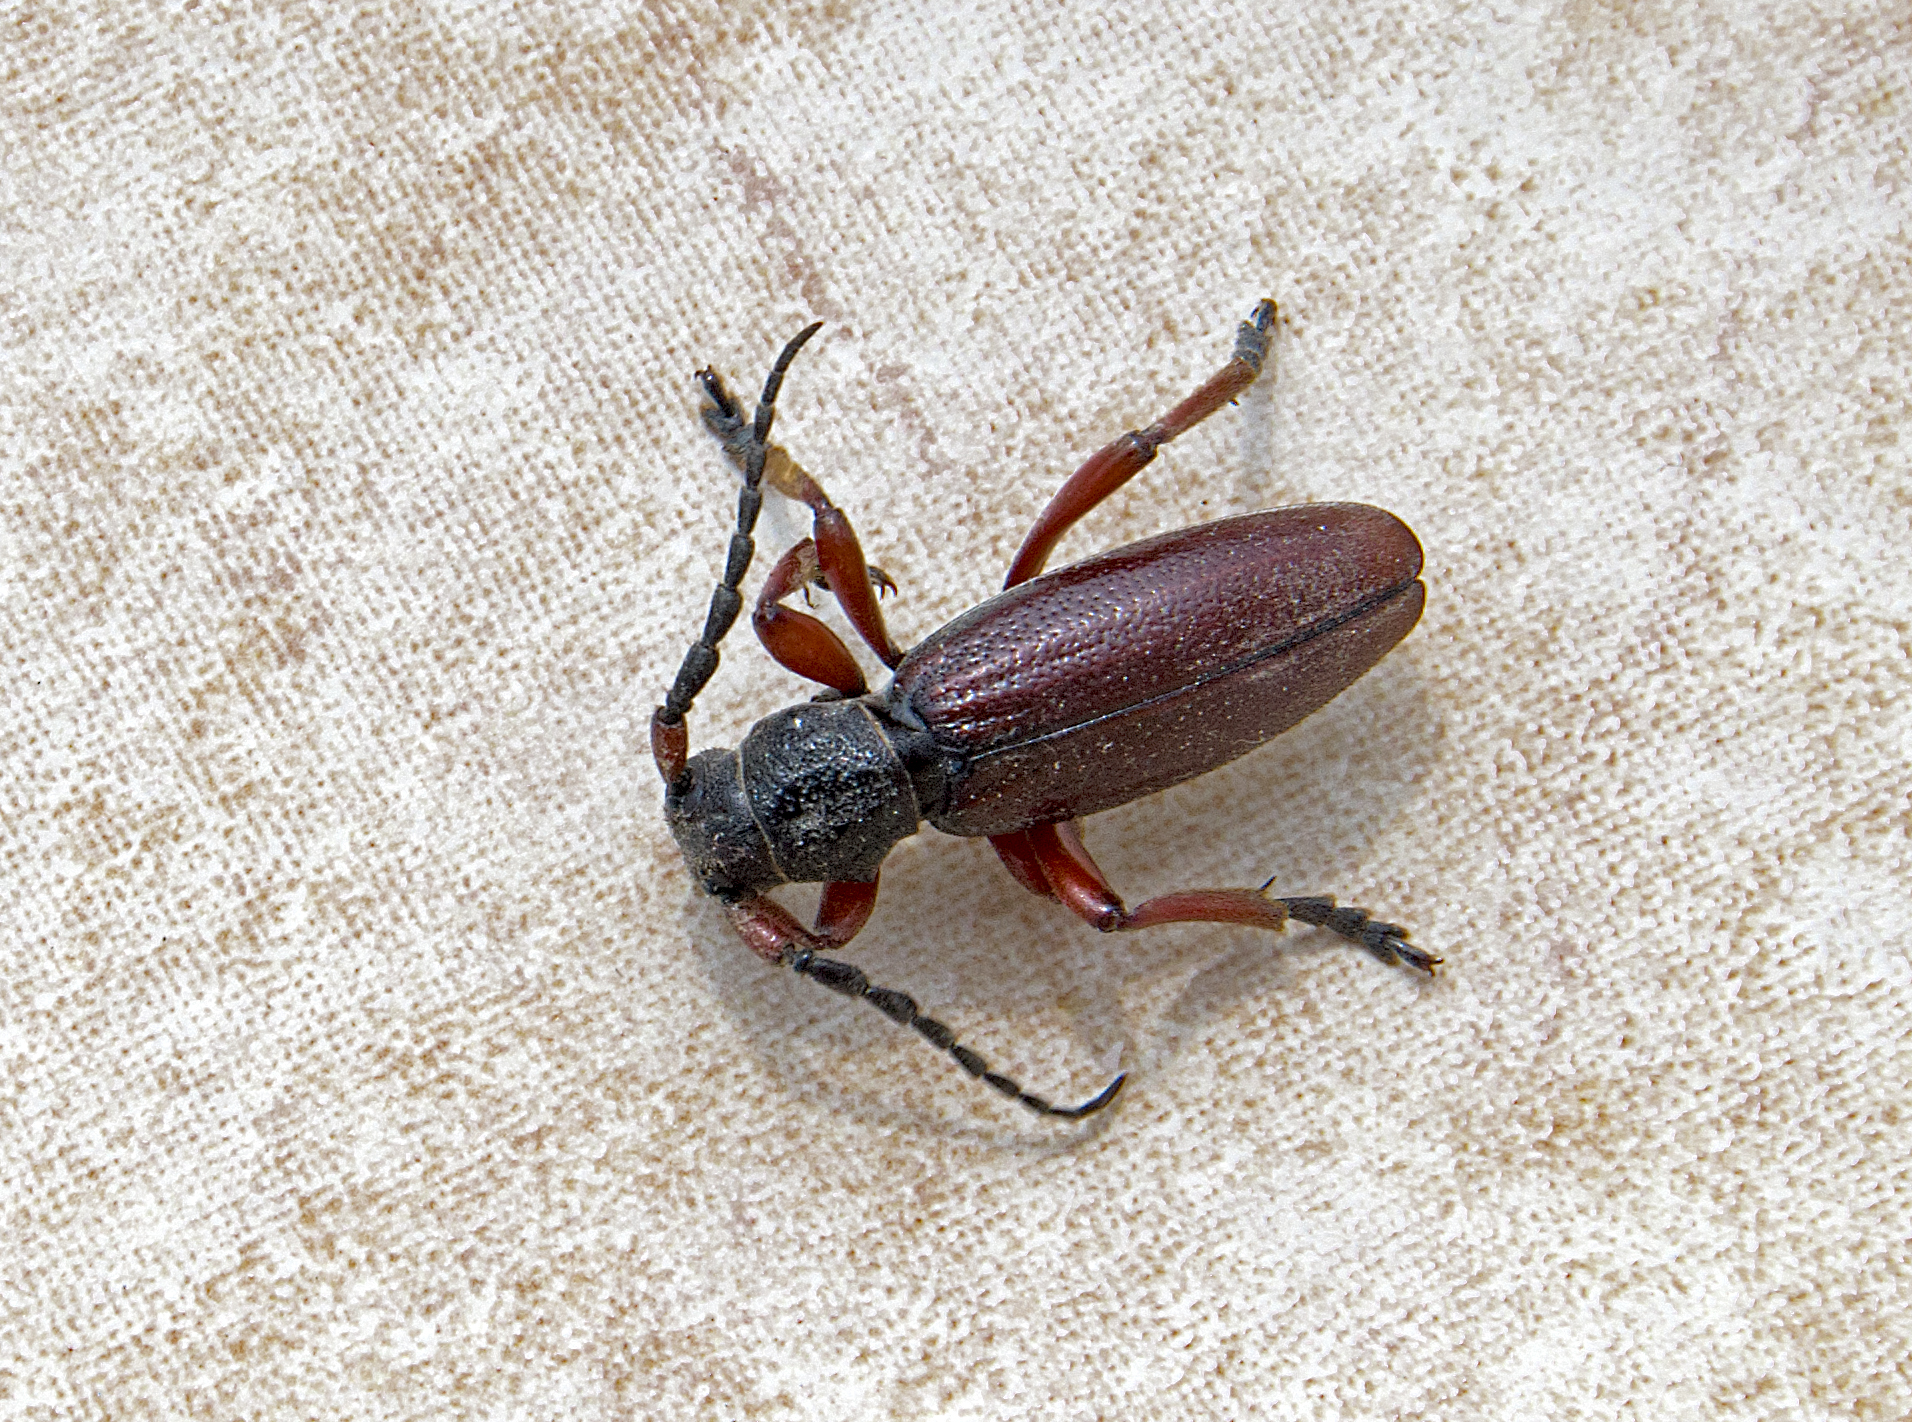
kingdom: Animalia
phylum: Arthropoda
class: Insecta
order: Coleoptera
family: Cerambycidae
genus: Dorcadion
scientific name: Dorcadion fulvum
